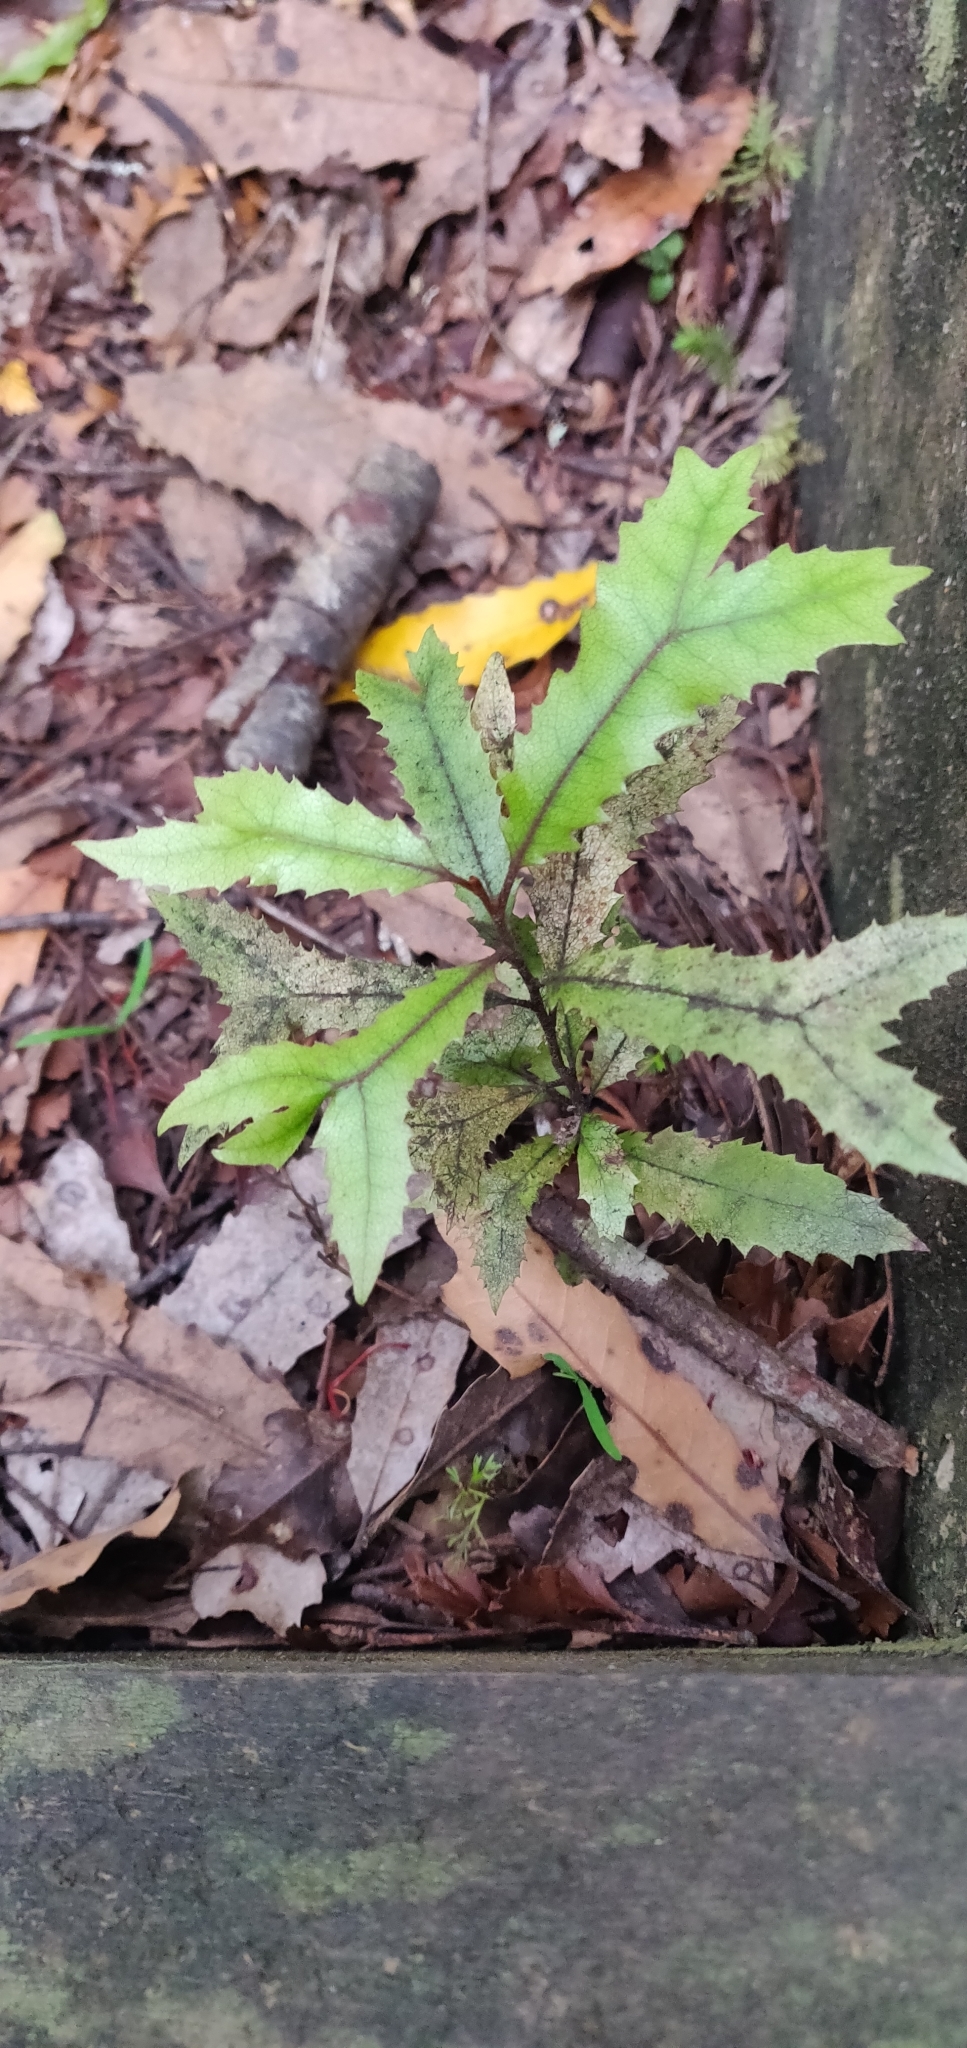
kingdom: Plantae
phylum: Tracheophyta
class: Magnoliopsida
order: Proteales
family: Proteaceae
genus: Knightia
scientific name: Knightia excelsa
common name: New zealand-honeysuckle
